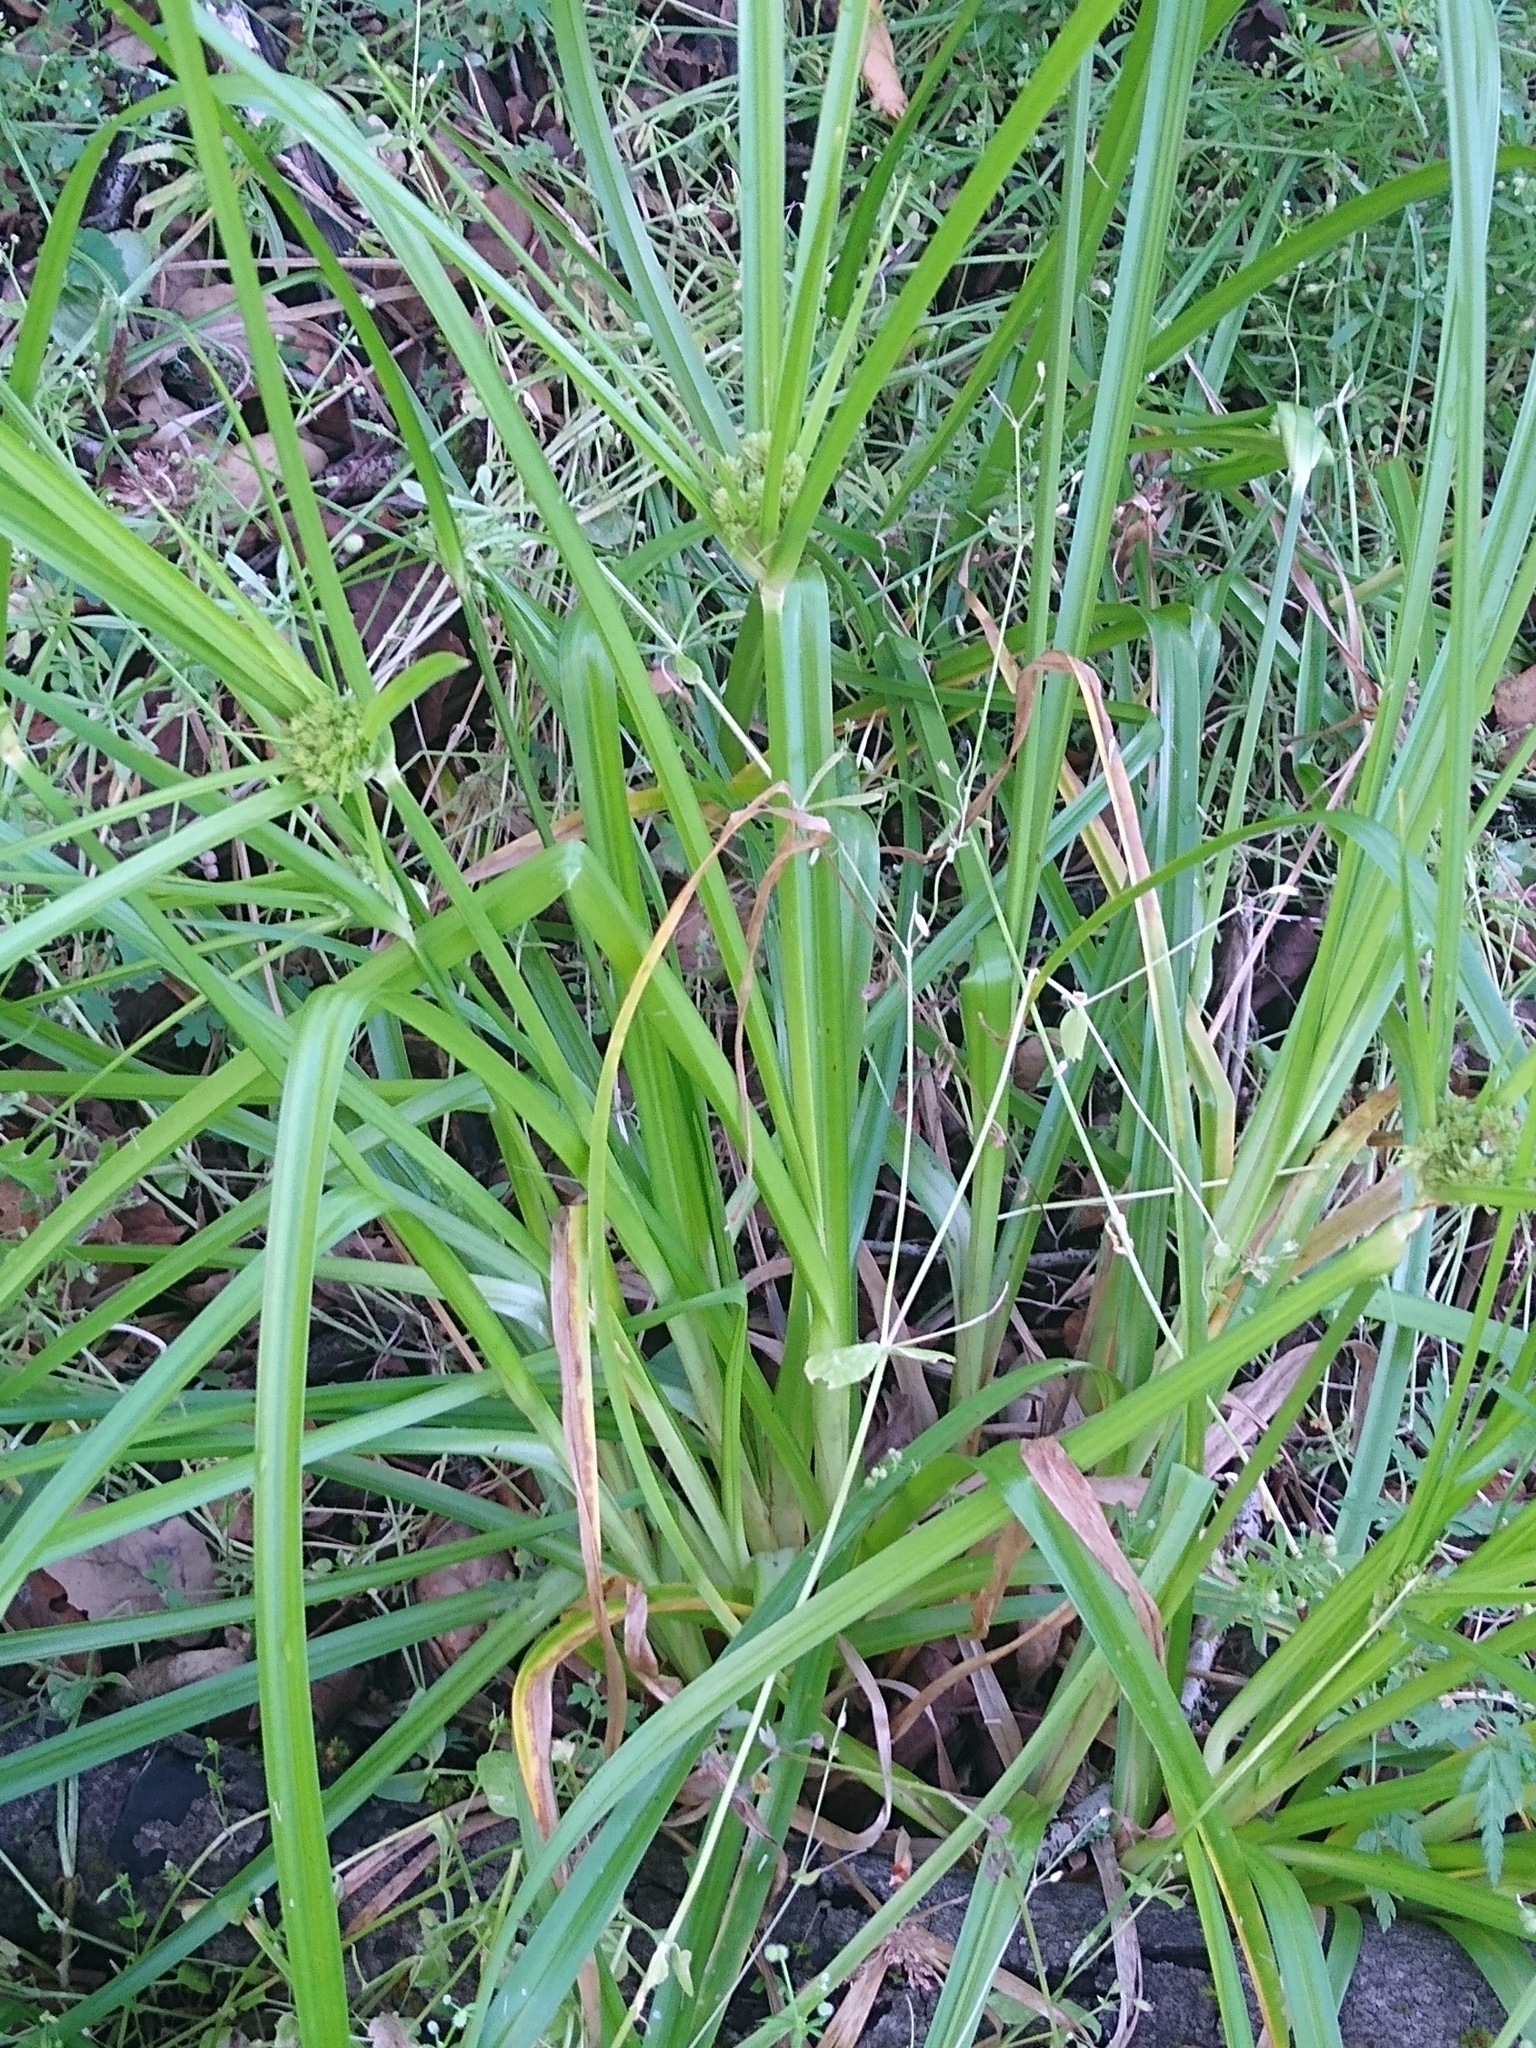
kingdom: Plantae
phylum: Tracheophyta
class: Liliopsida
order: Poales
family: Cyperaceae
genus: Cyperus
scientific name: Cyperus eragrostis
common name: Tall flatsedge
